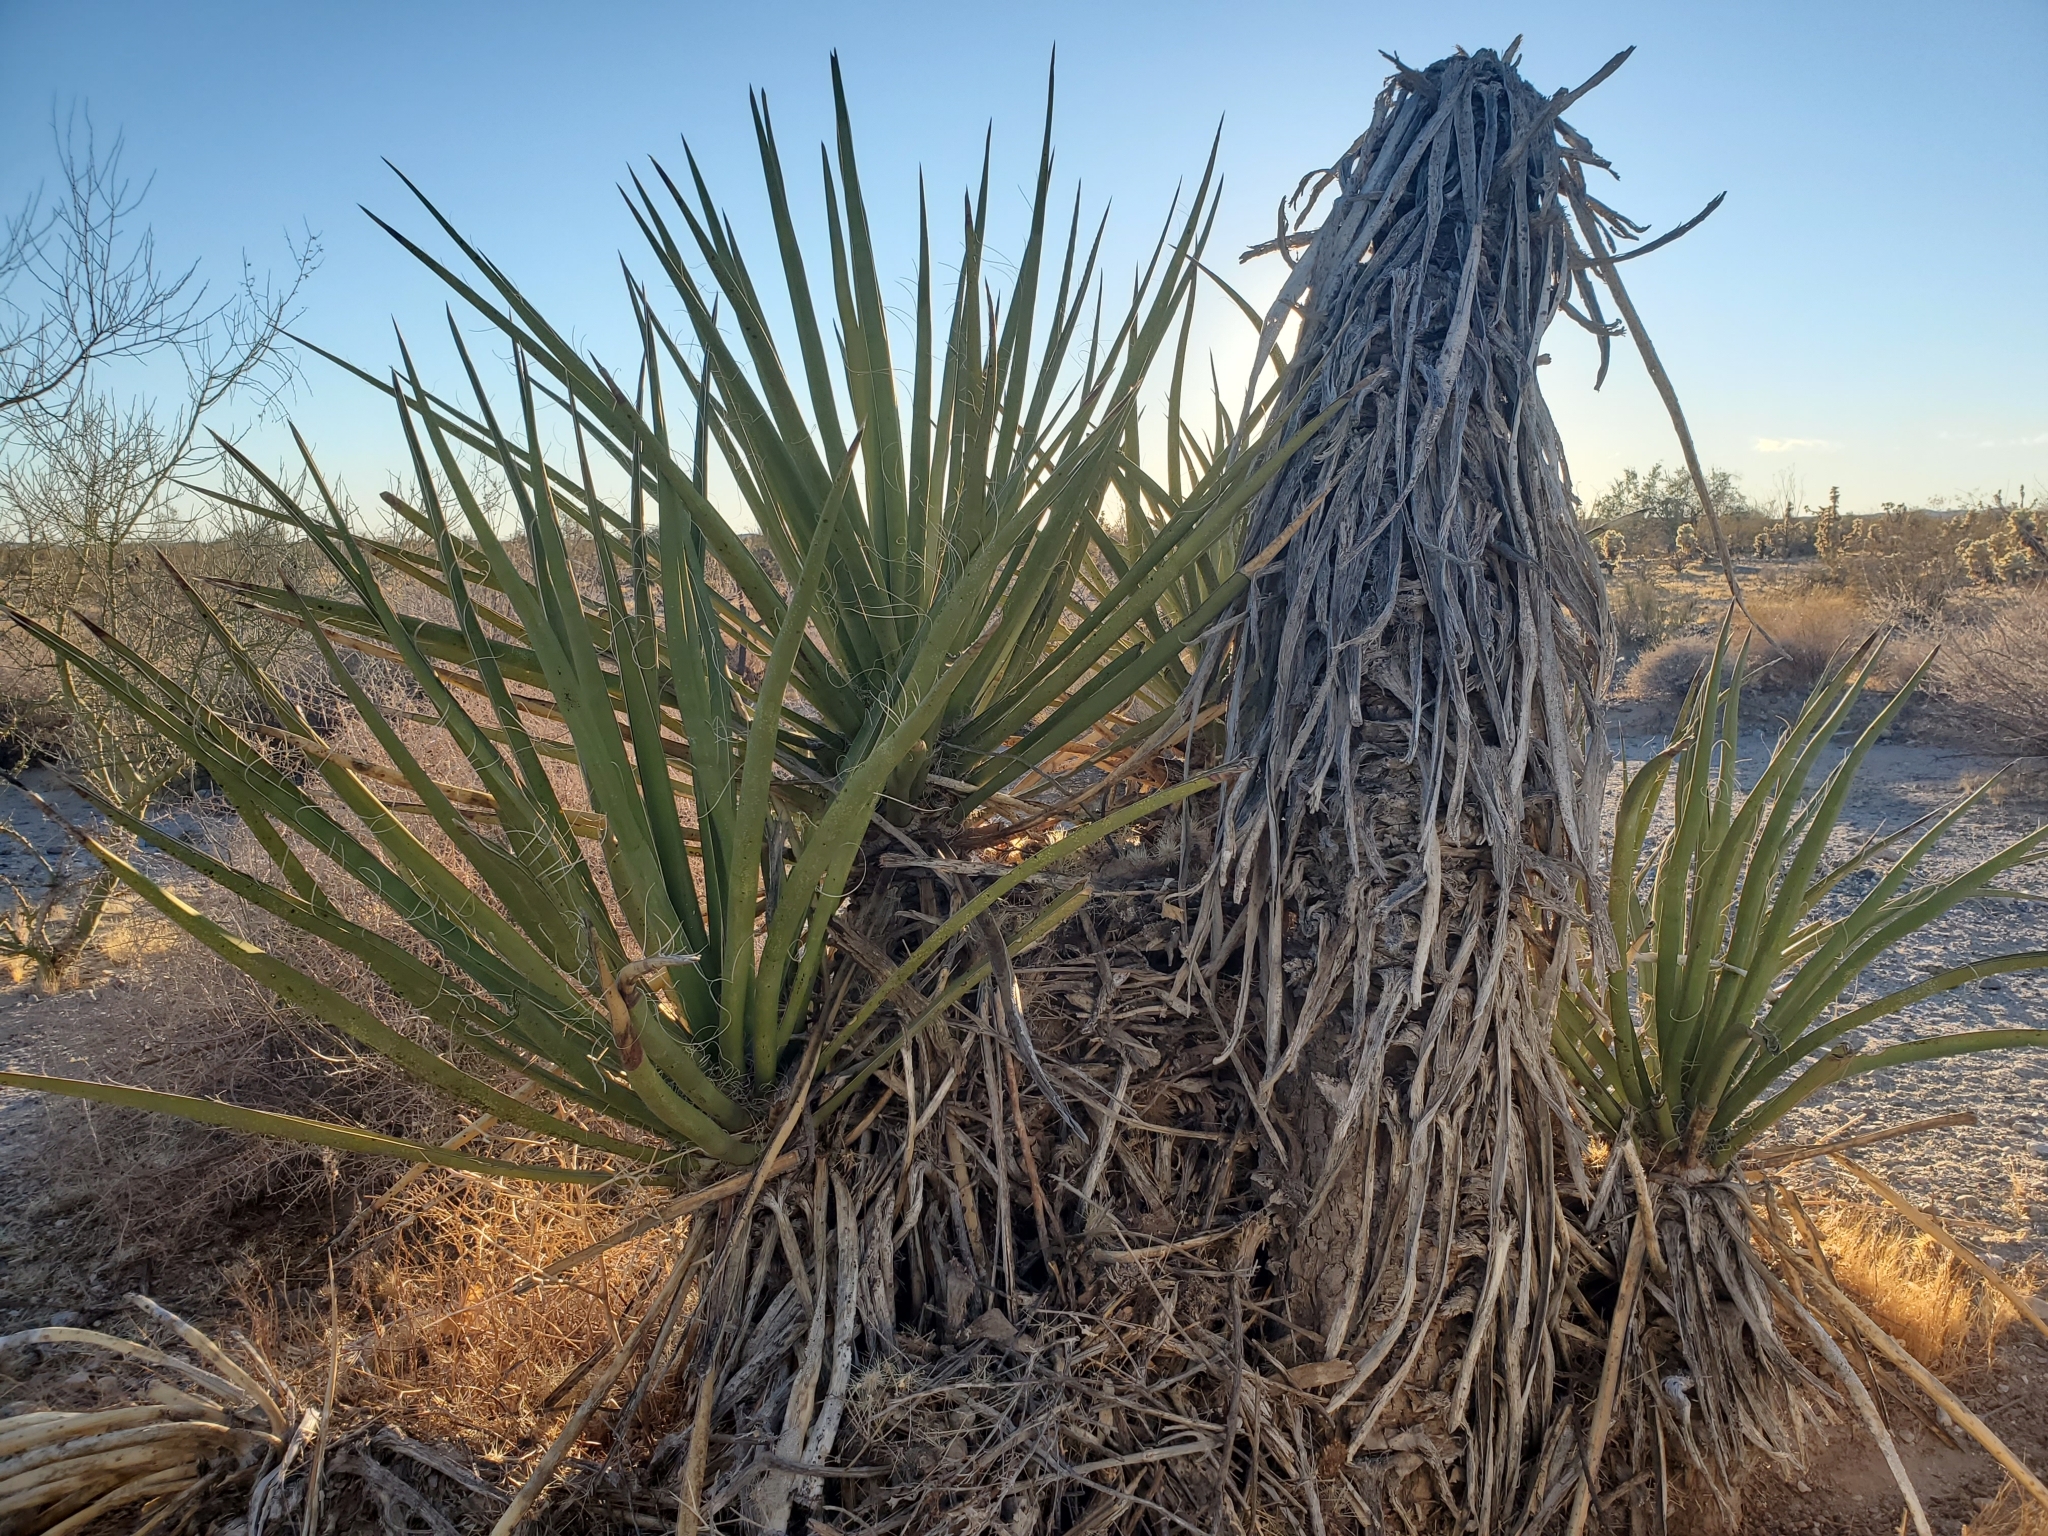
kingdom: Plantae
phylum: Tracheophyta
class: Liliopsida
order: Asparagales
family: Asparagaceae
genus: Yucca
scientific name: Yucca schidigera
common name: Mojave yucca
